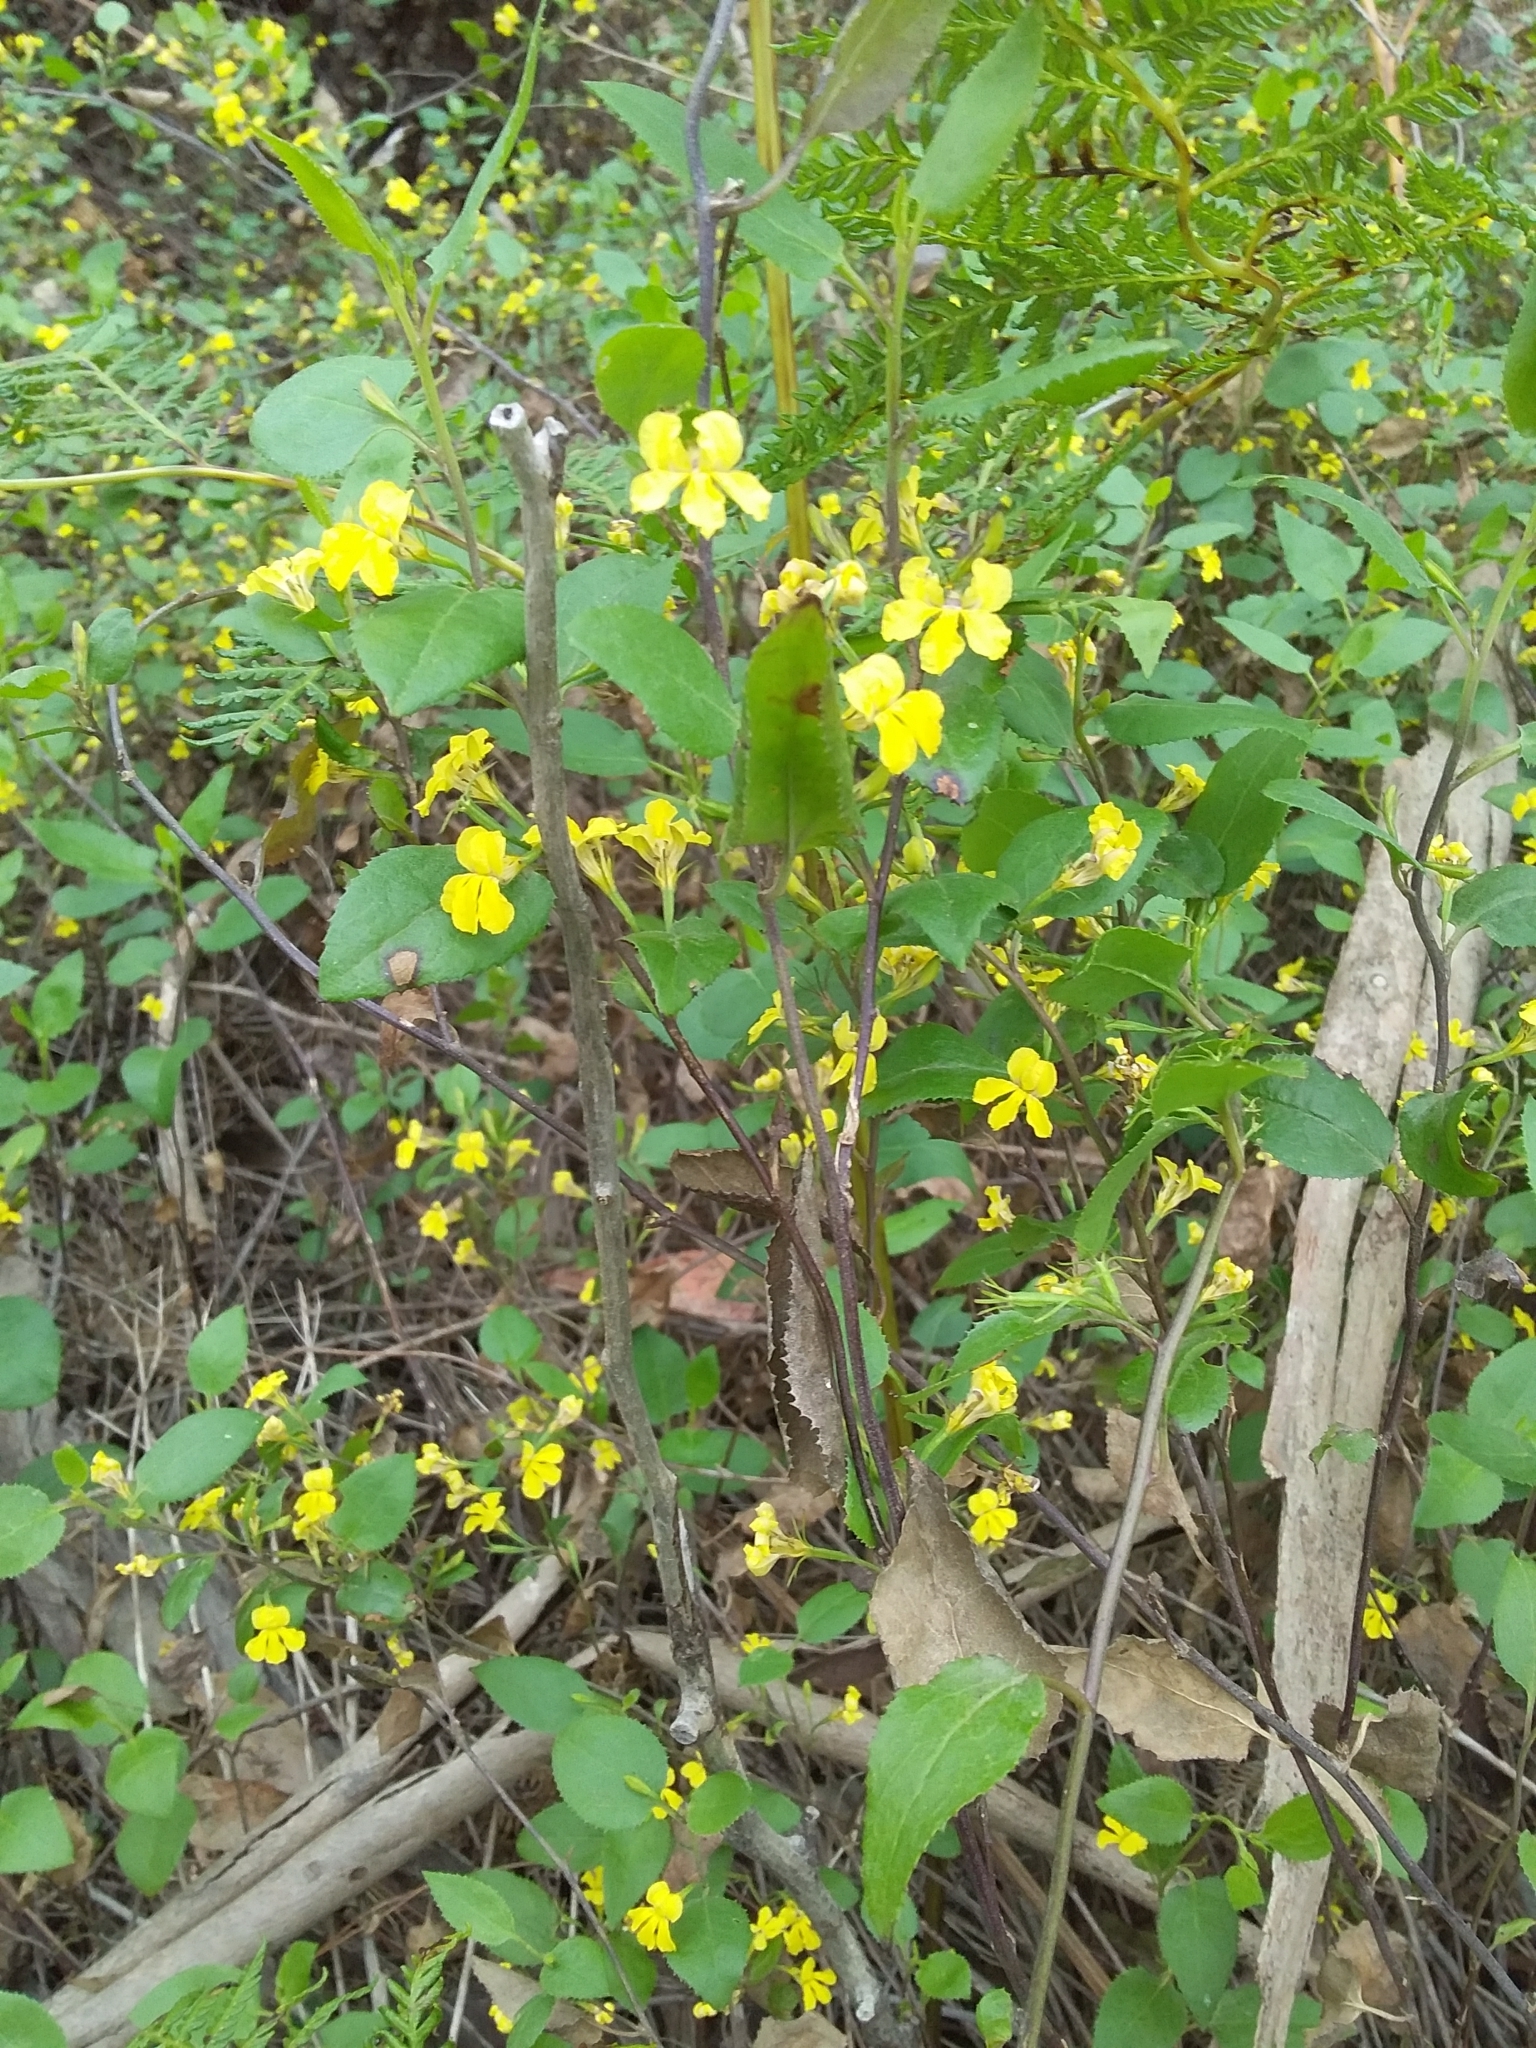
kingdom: Plantae
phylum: Tracheophyta
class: Magnoliopsida
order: Asterales
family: Goodeniaceae
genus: Goodenia
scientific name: Goodenia ovata
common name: Hop goodenia
